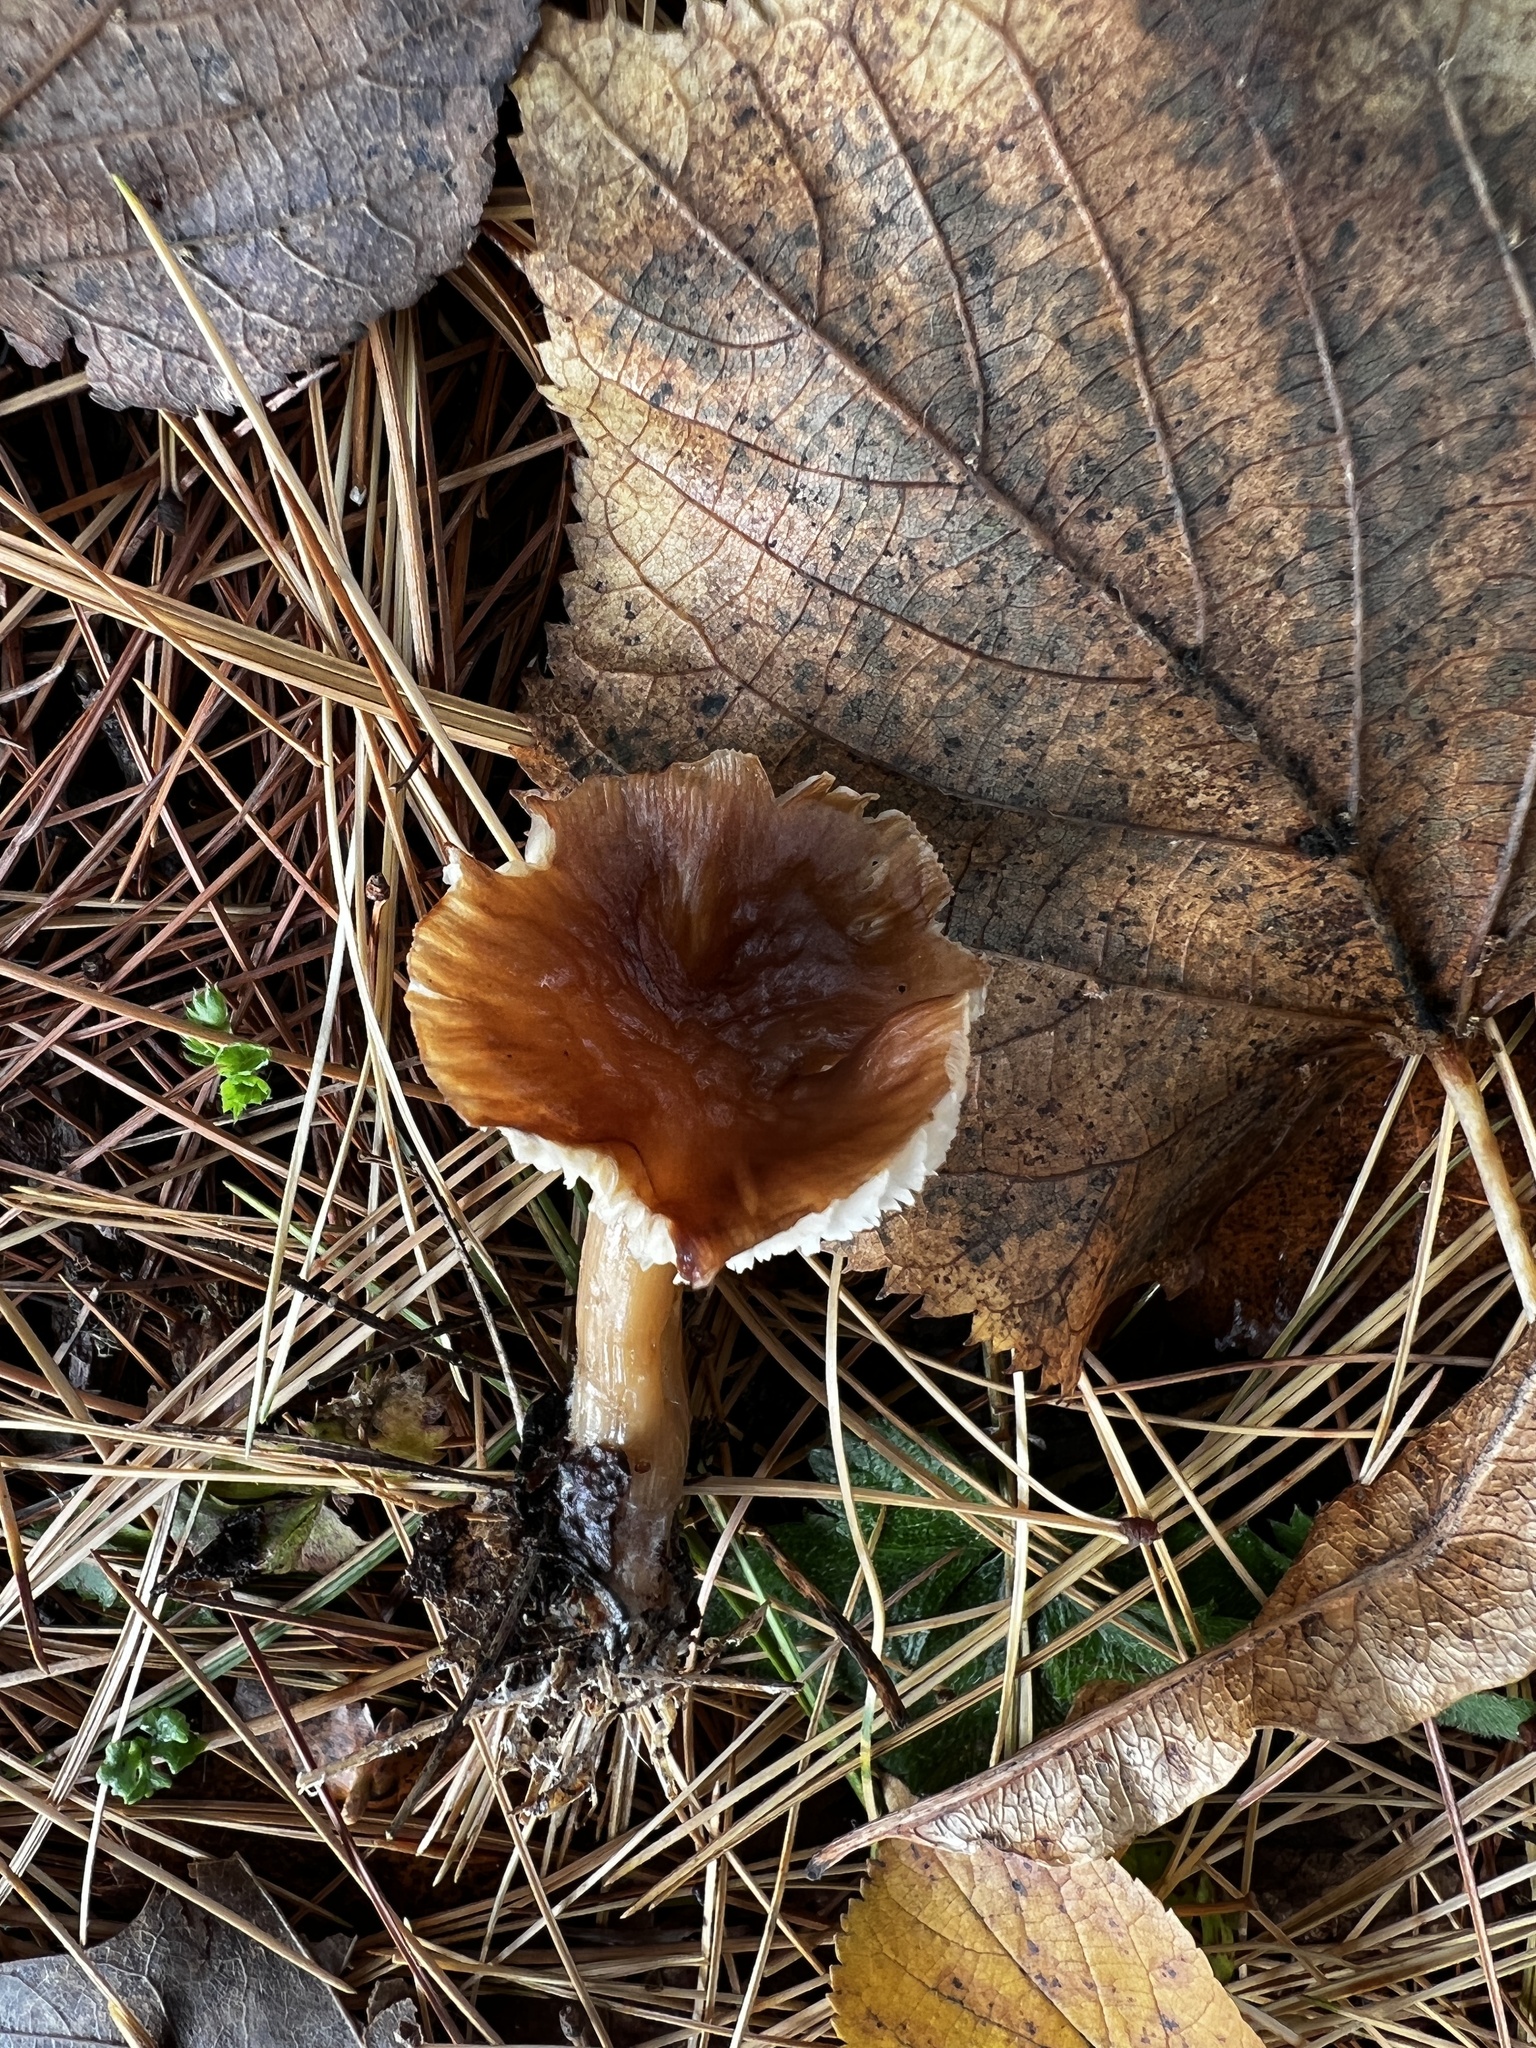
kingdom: Fungi
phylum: Basidiomycota
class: Agaricomycetes
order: Agaricales
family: Omphalotaceae
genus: Rhodocollybia
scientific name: Rhodocollybia butyracea
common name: Butter cap
